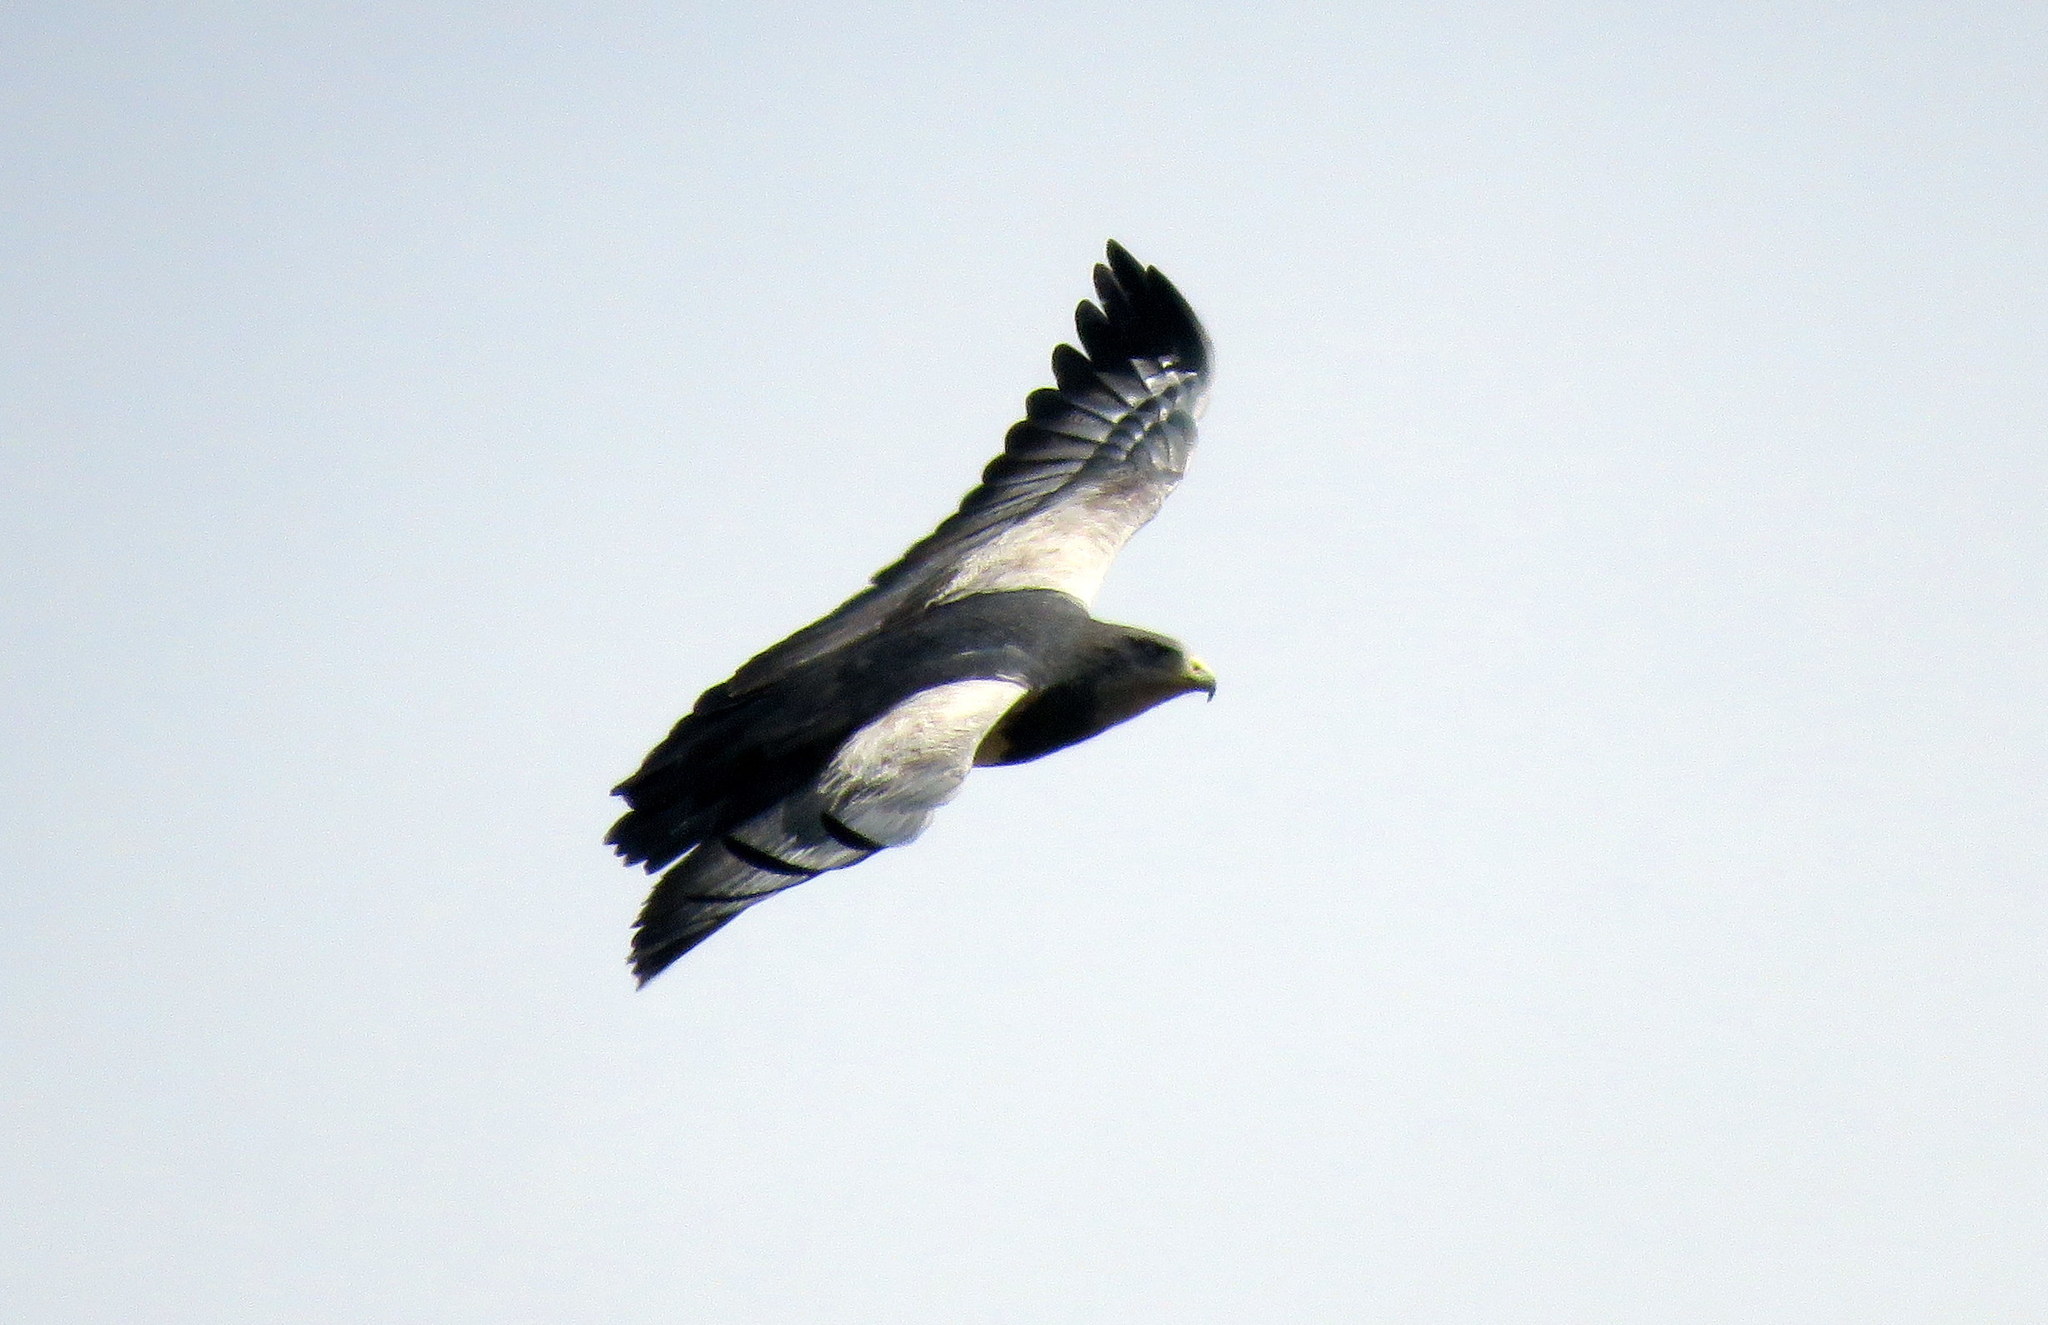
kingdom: Animalia
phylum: Chordata
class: Aves
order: Accipitriformes
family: Accipitridae
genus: Geranoaetus
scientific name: Geranoaetus melanoleucus
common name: Black-chested buzzard-eagle
